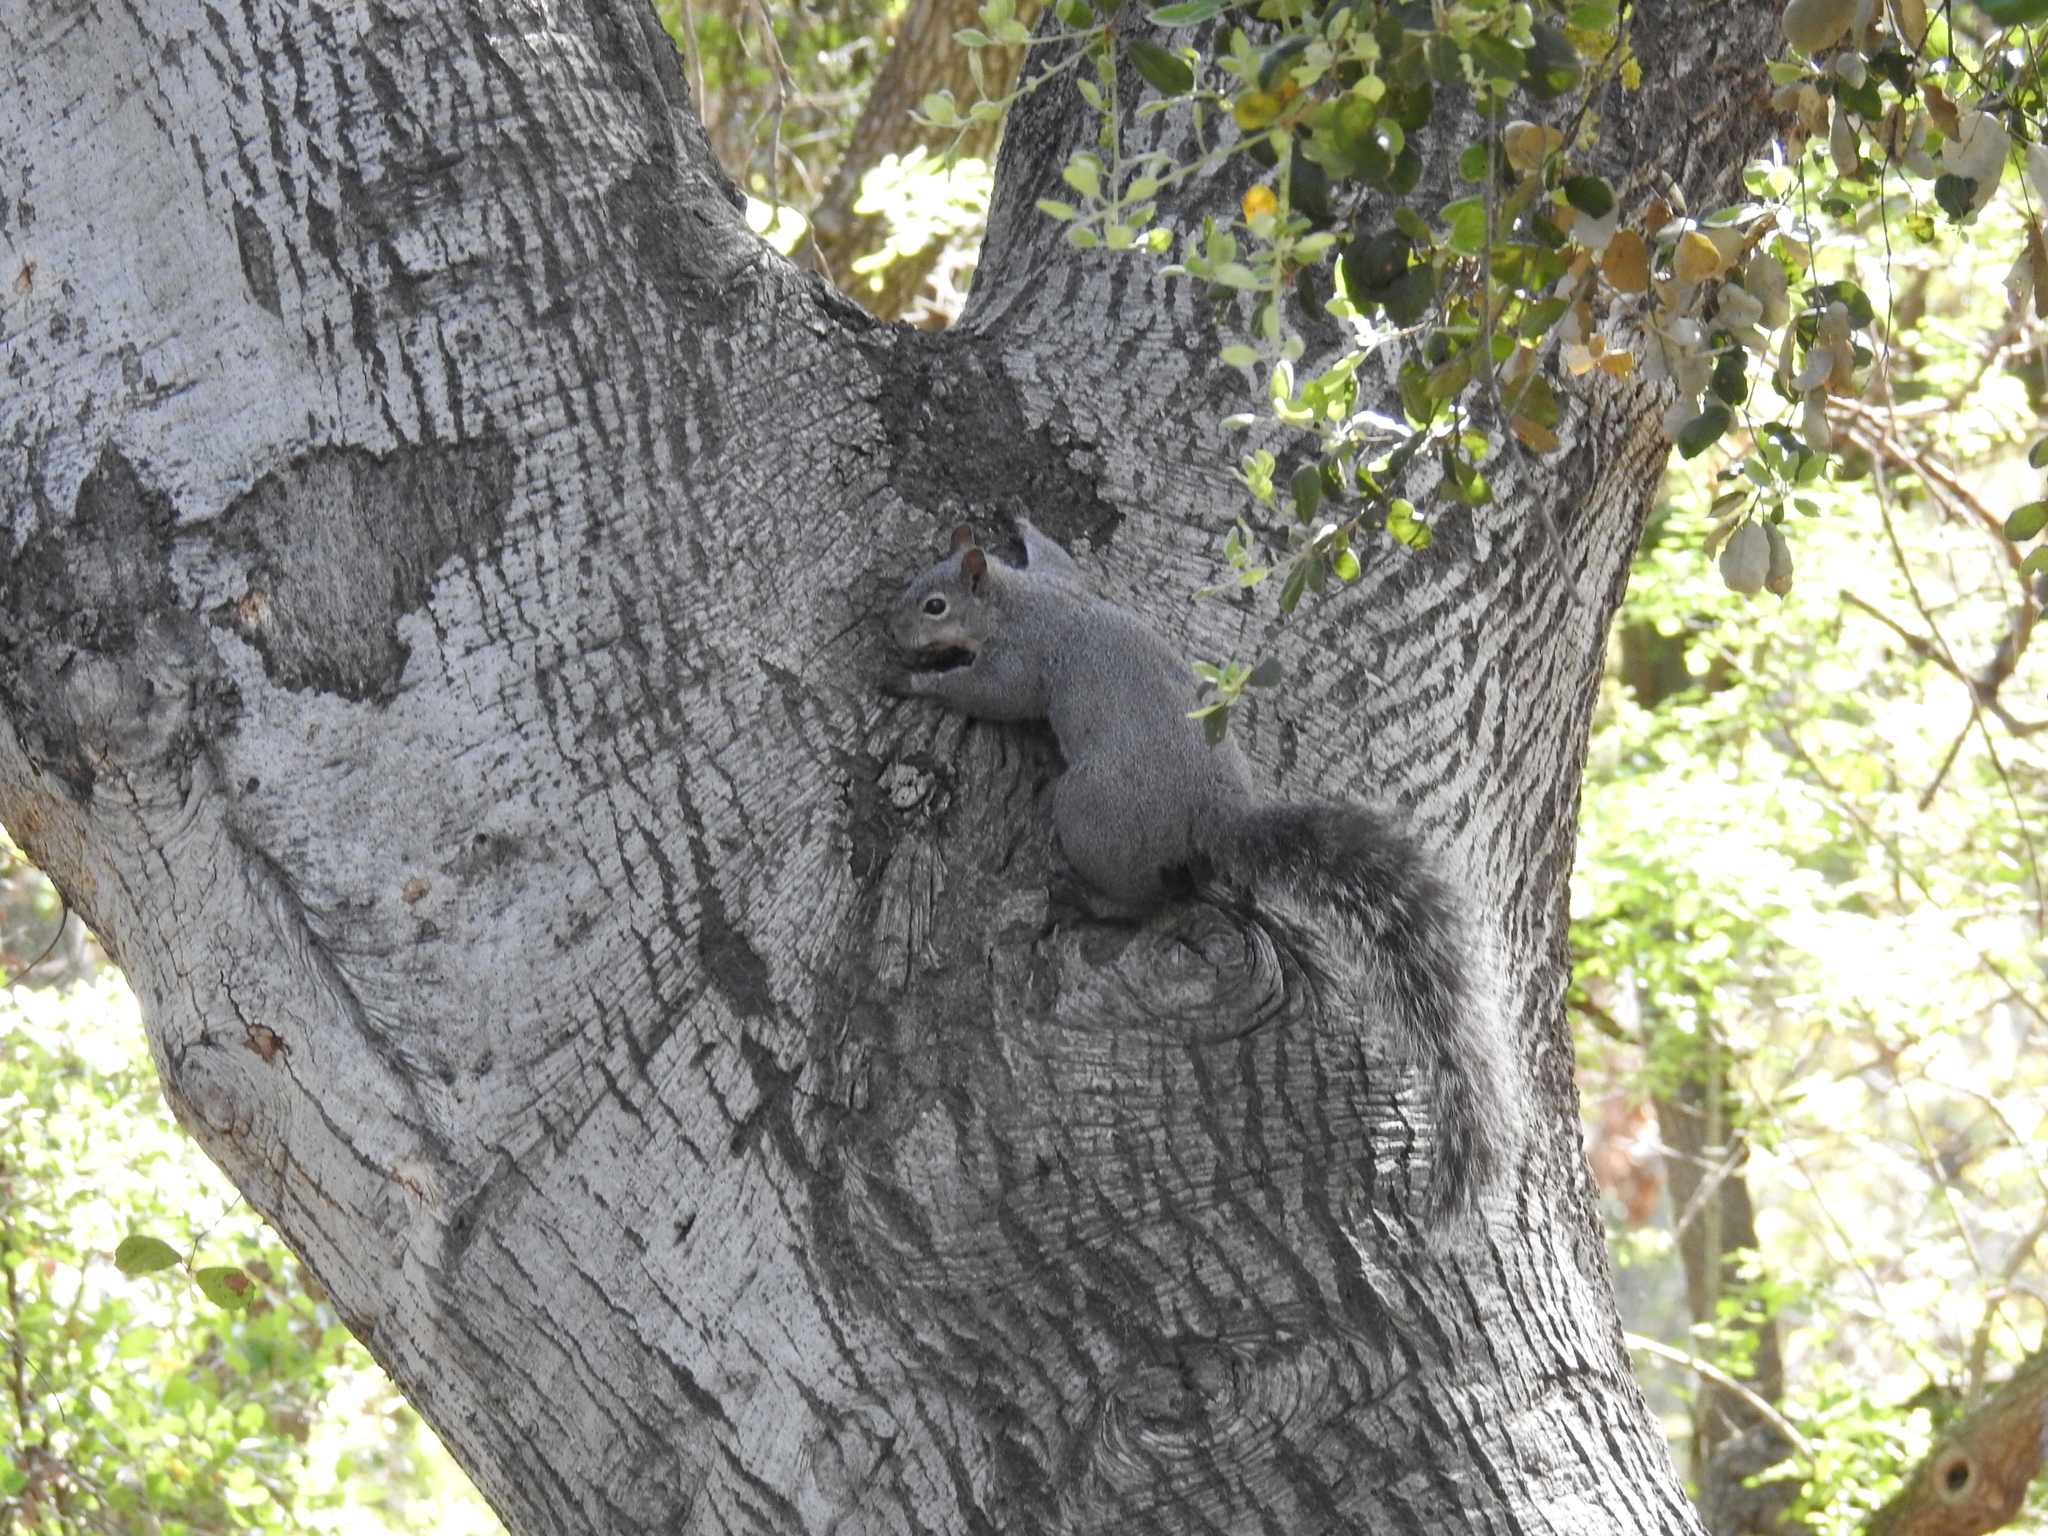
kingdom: Animalia
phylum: Chordata
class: Mammalia
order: Rodentia
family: Sciuridae
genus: Sciurus
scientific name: Sciurus griseus
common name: Western gray squirrel
